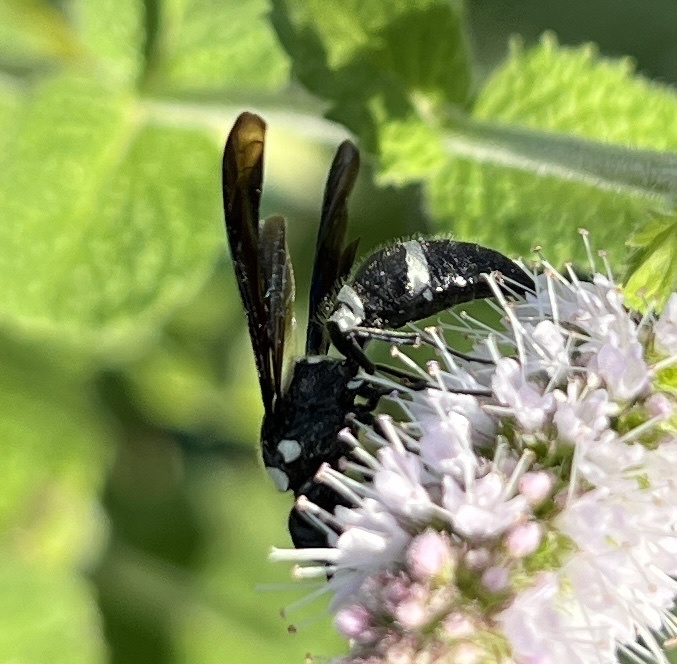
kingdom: Animalia
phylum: Arthropoda
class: Insecta
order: Hymenoptera
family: Eumenidae
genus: Pseudodynerus
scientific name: Pseudodynerus quadrisectus
